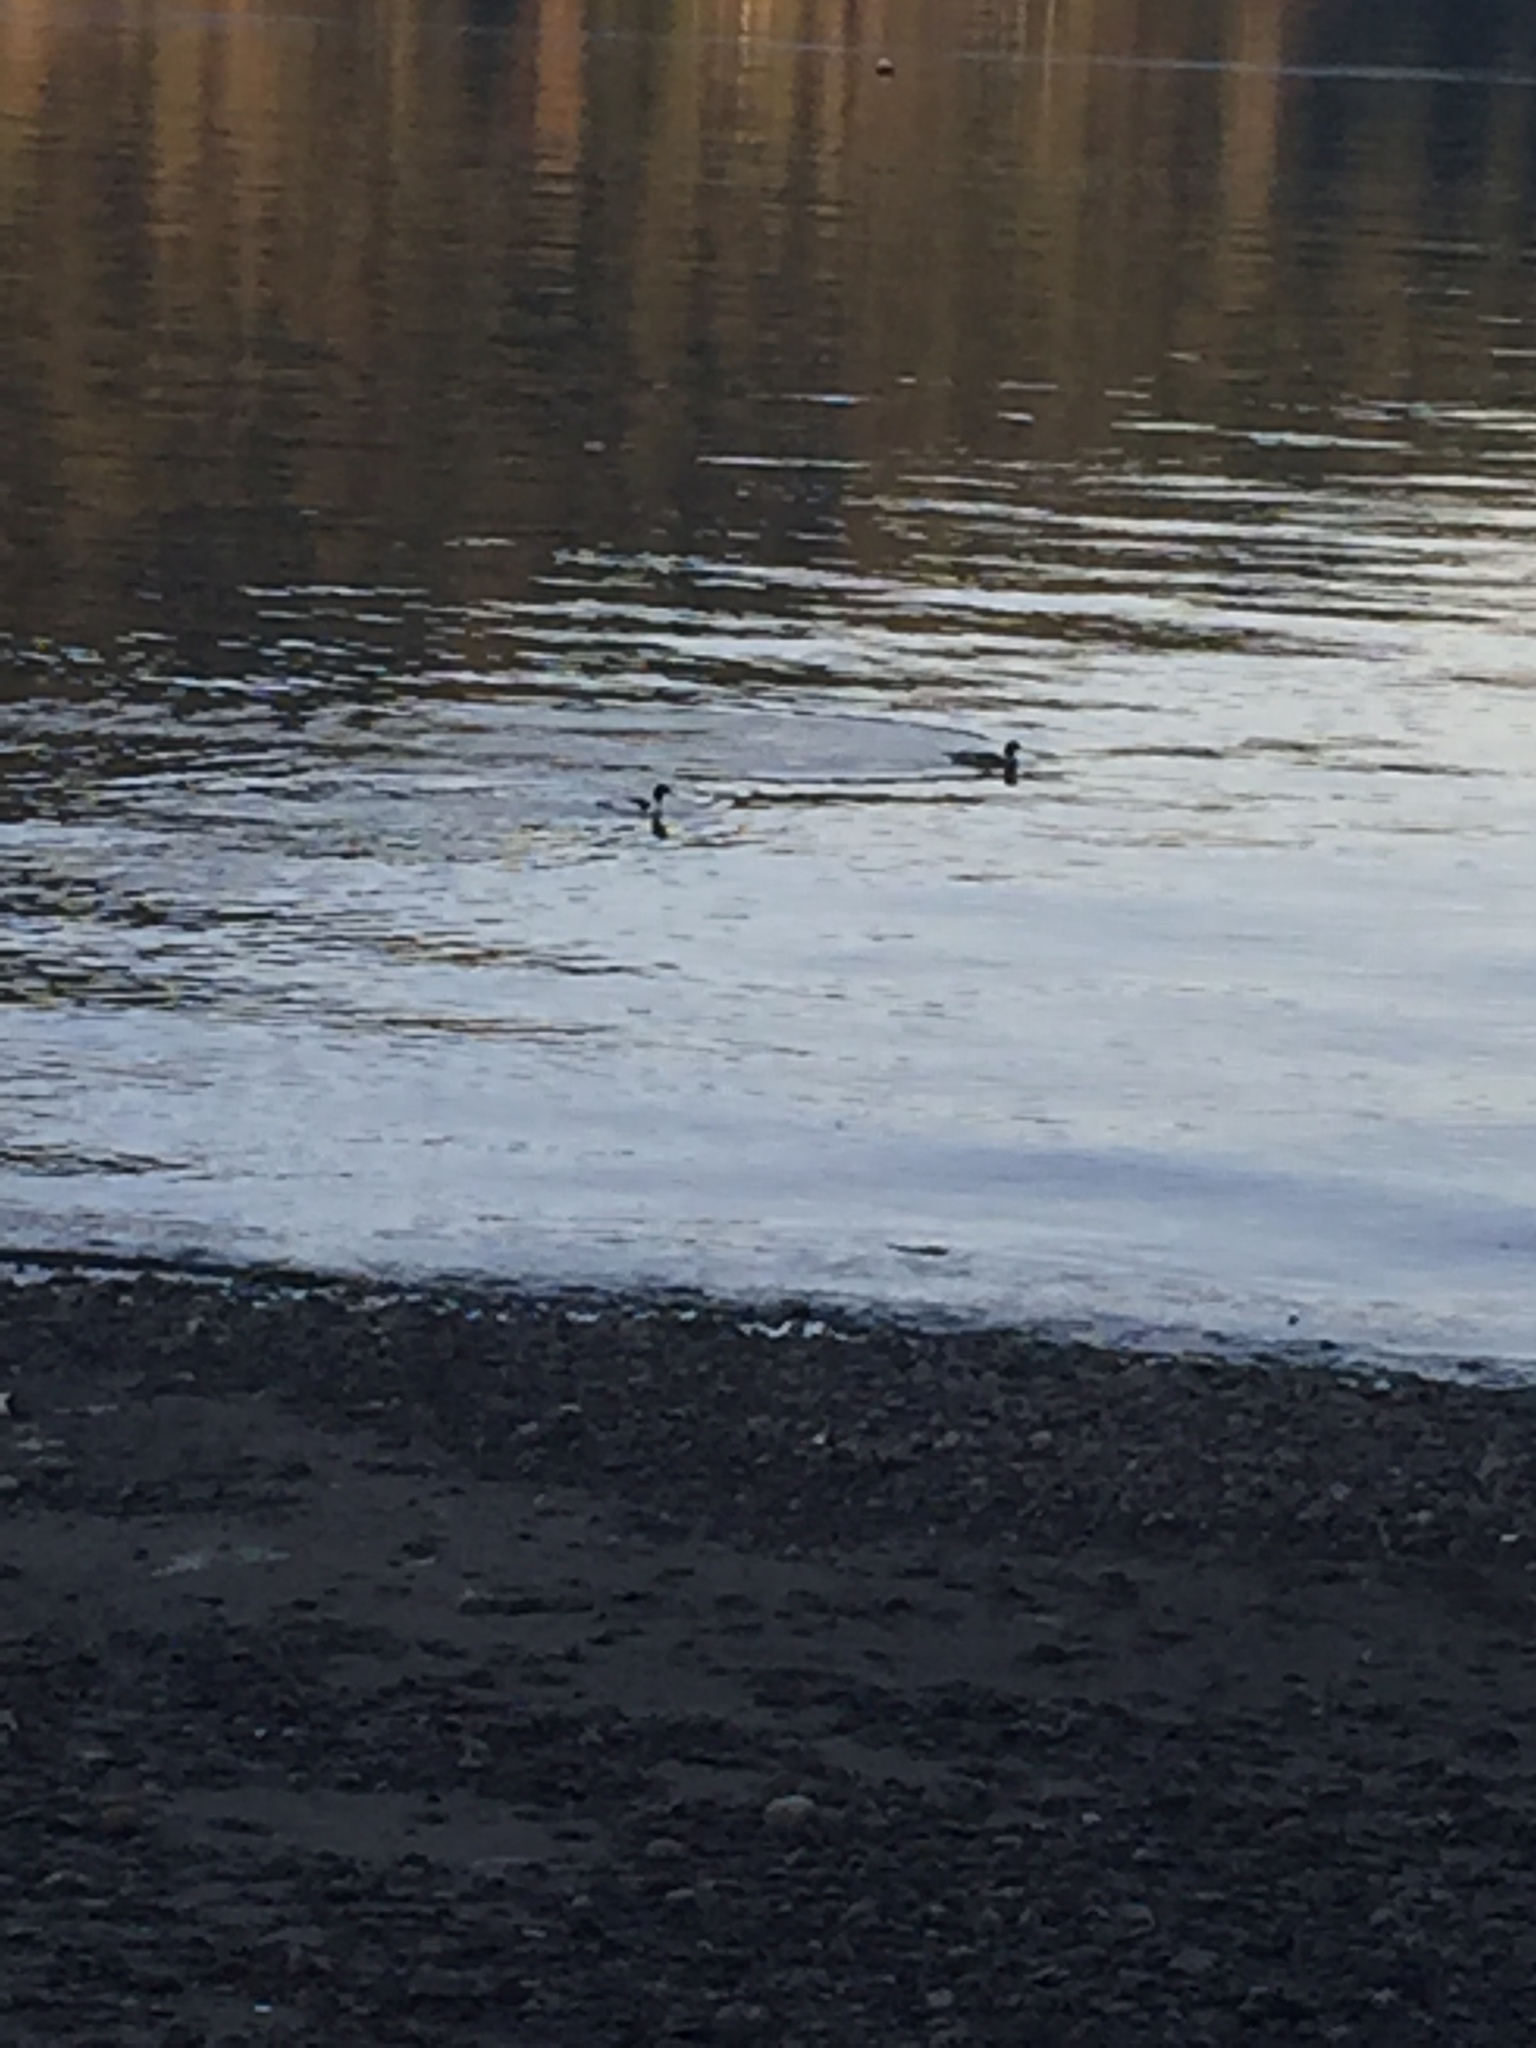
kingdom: Animalia
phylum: Chordata
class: Aves
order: Anseriformes
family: Anatidae
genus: Mergus
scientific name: Mergus merganser
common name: Common merganser
